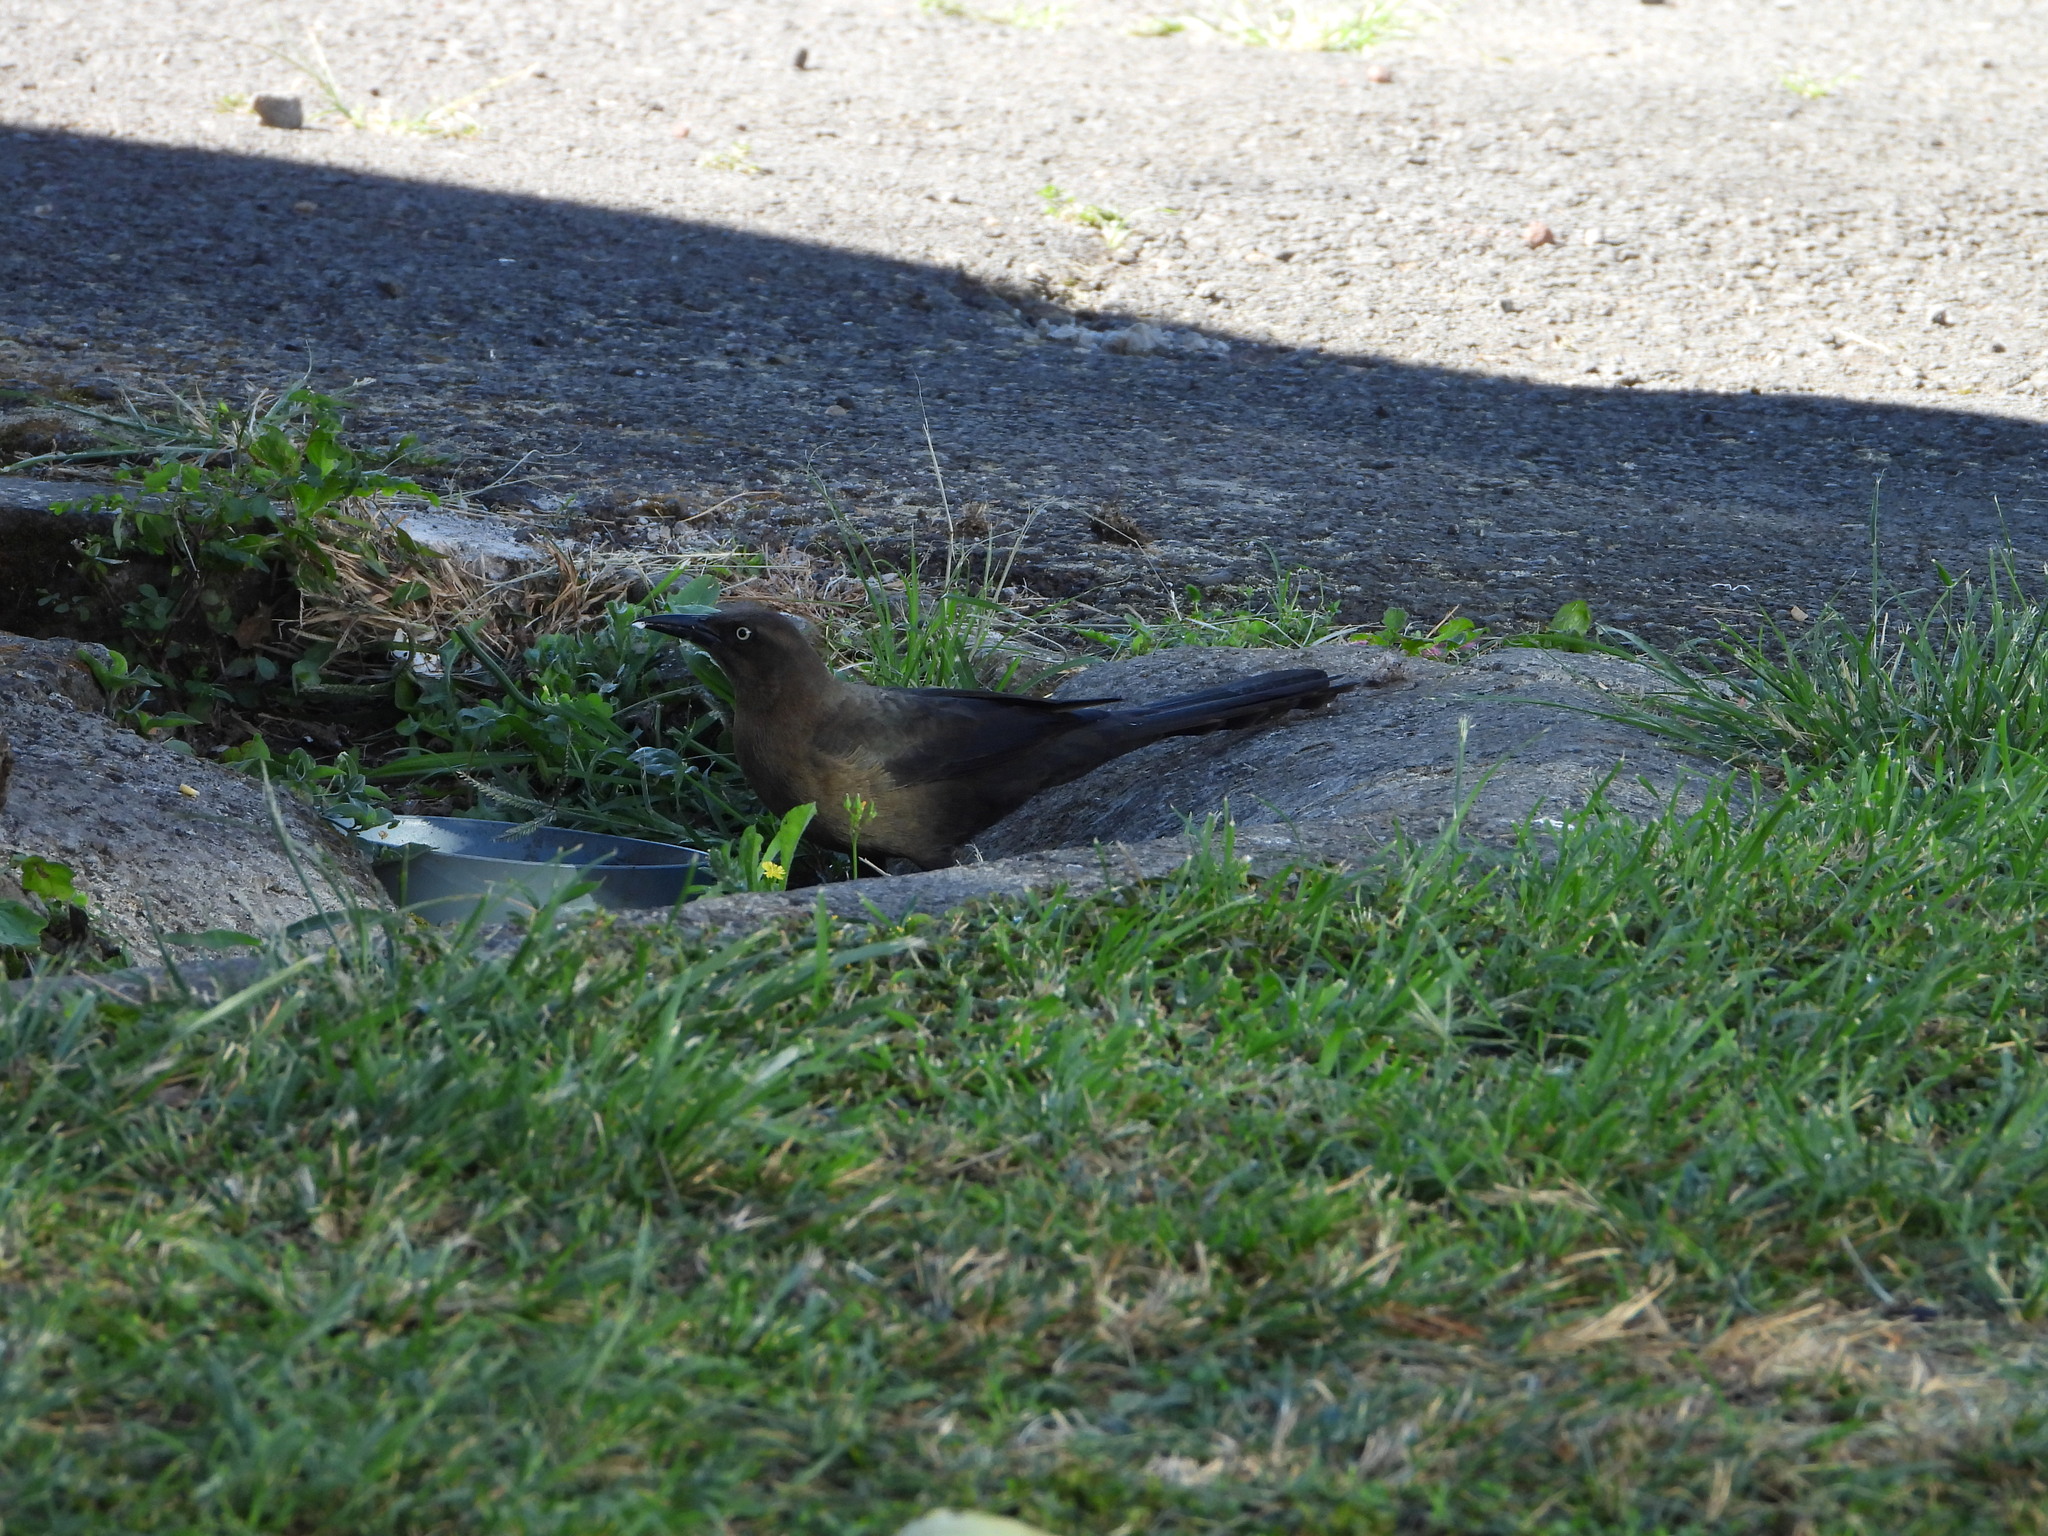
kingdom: Animalia
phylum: Chordata
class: Aves
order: Passeriformes
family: Icteridae
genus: Quiscalus
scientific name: Quiscalus mexicanus
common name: Great-tailed grackle
